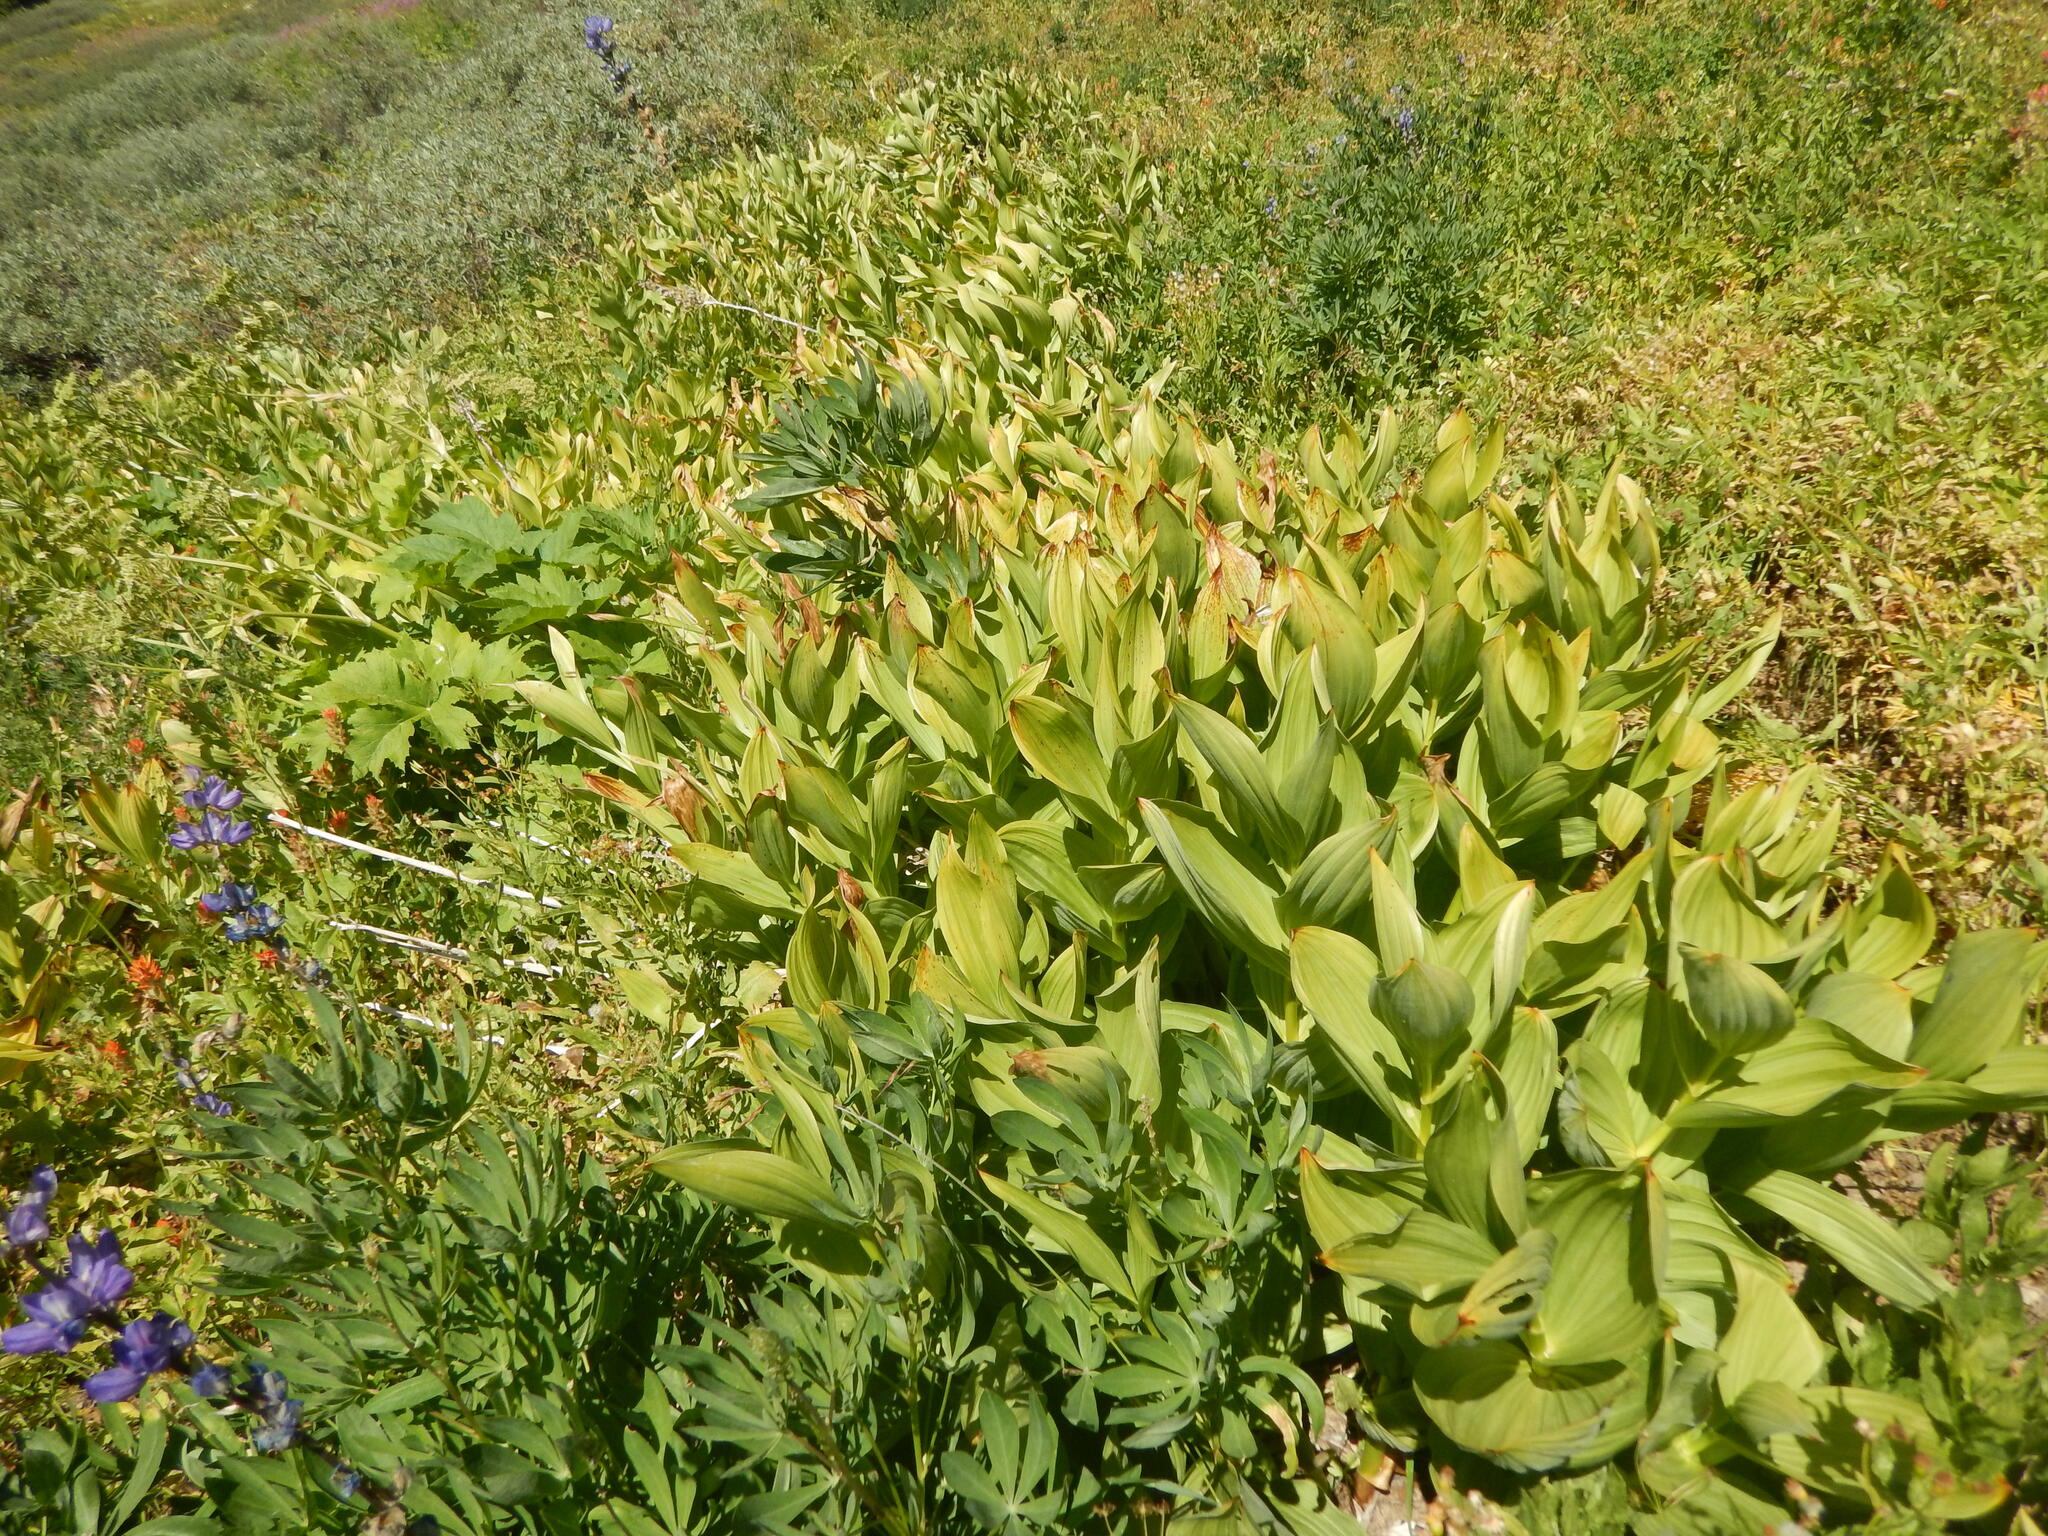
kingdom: Plantae
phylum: Tracheophyta
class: Liliopsida
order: Liliales
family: Melanthiaceae
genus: Veratrum
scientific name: Veratrum californicum
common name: California veratrum
